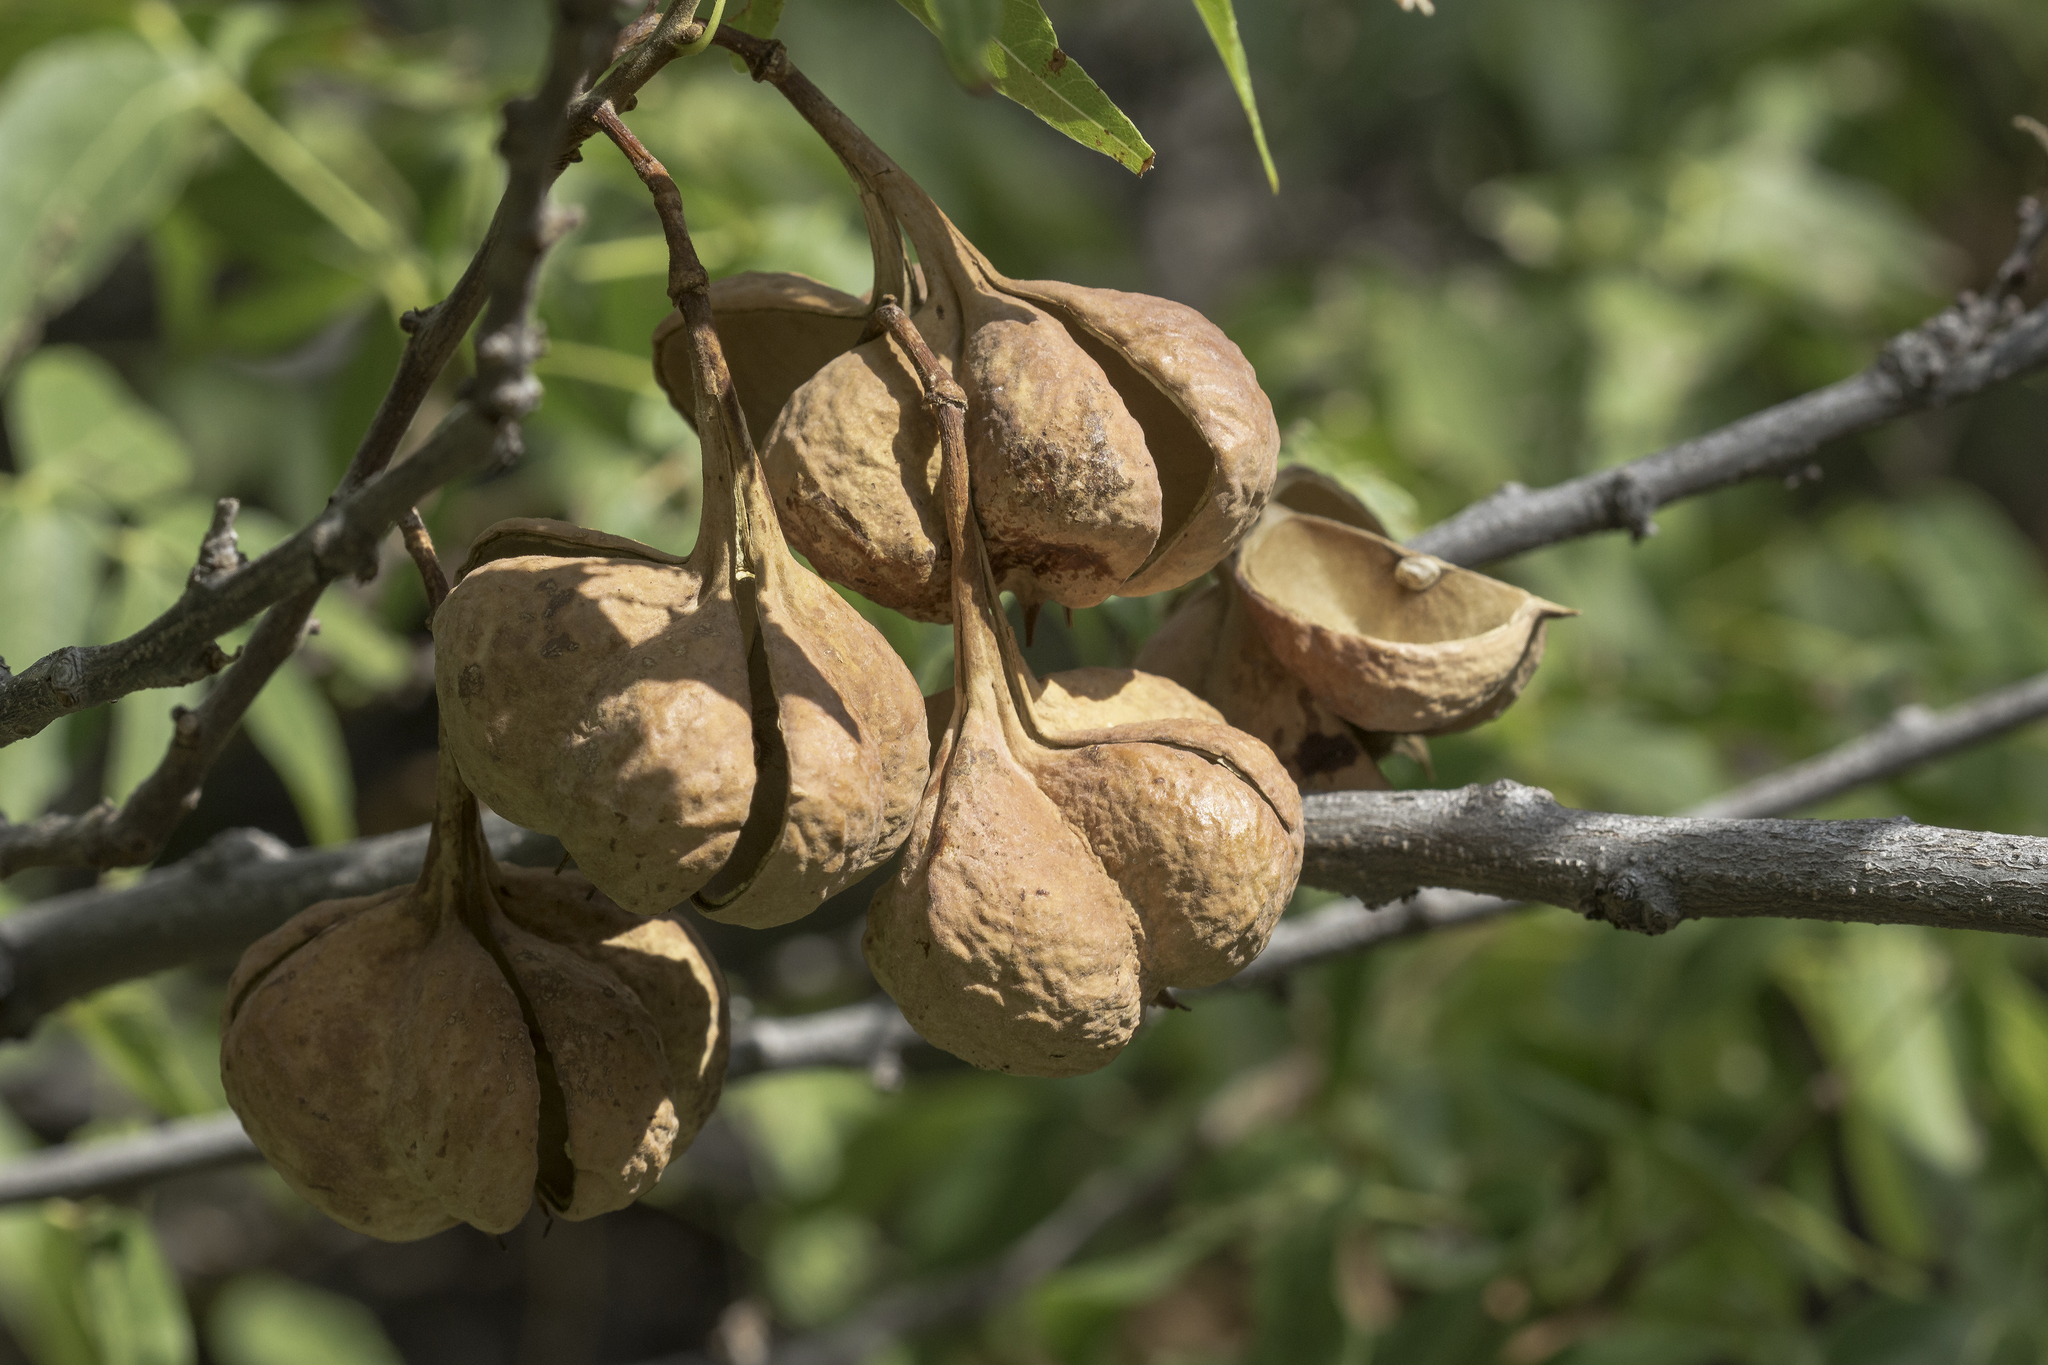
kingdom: Plantae
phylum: Tracheophyta
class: Magnoliopsida
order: Sapindales
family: Sapindaceae
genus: Ungnadia
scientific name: Ungnadia speciosa
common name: Texas-buckeye
